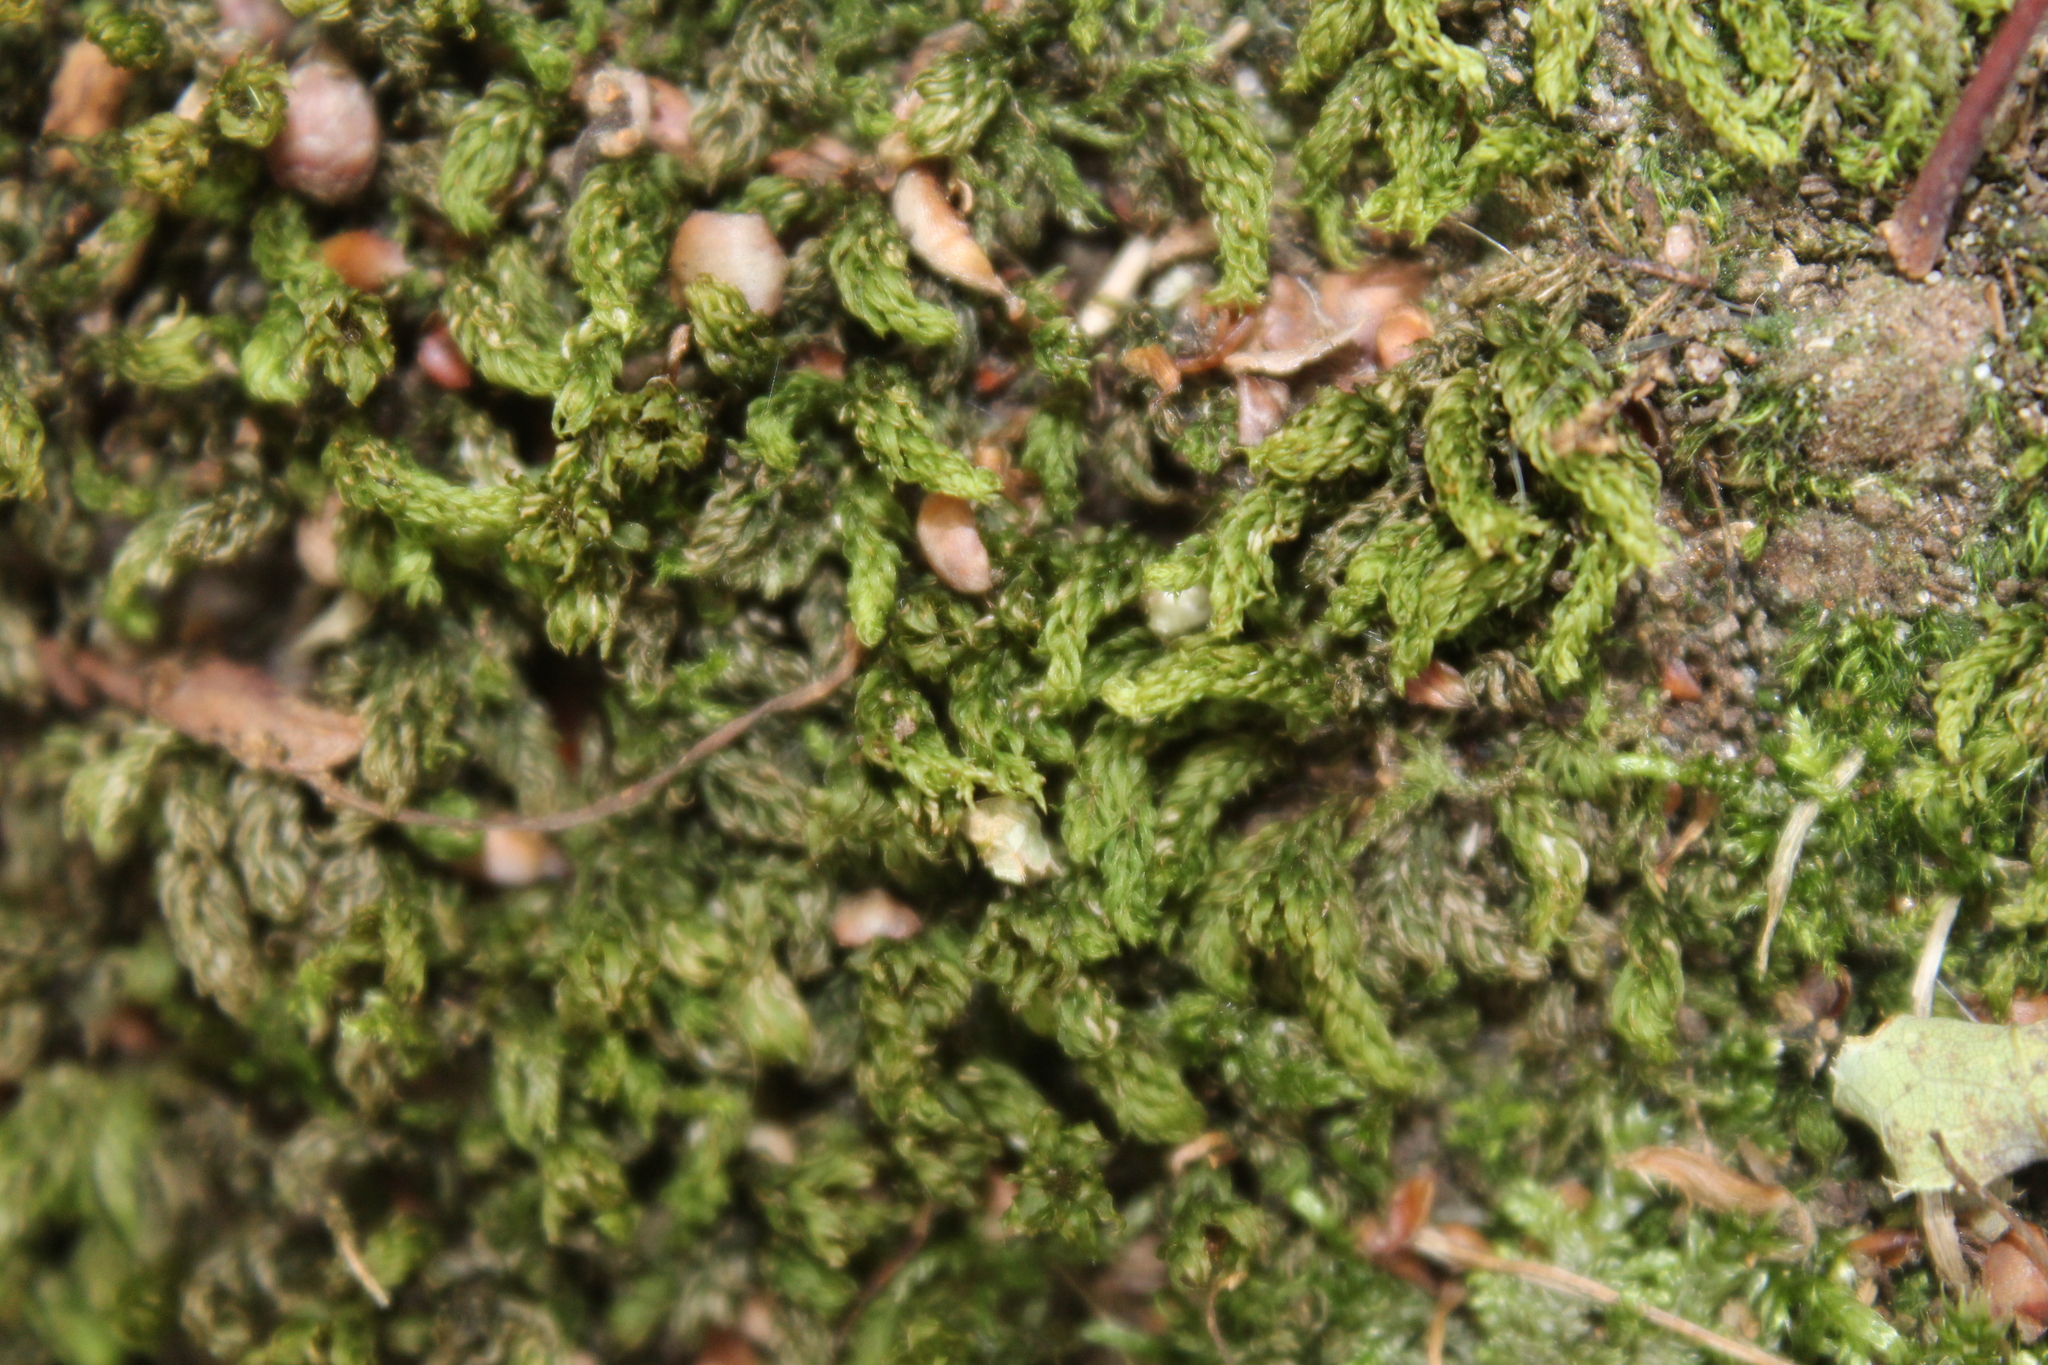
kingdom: Plantae
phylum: Bryophyta
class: Bryopsida
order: Bryales
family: Mniaceae
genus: Mnium
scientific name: Mnium hornum
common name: Swan's-neck leafy moss
